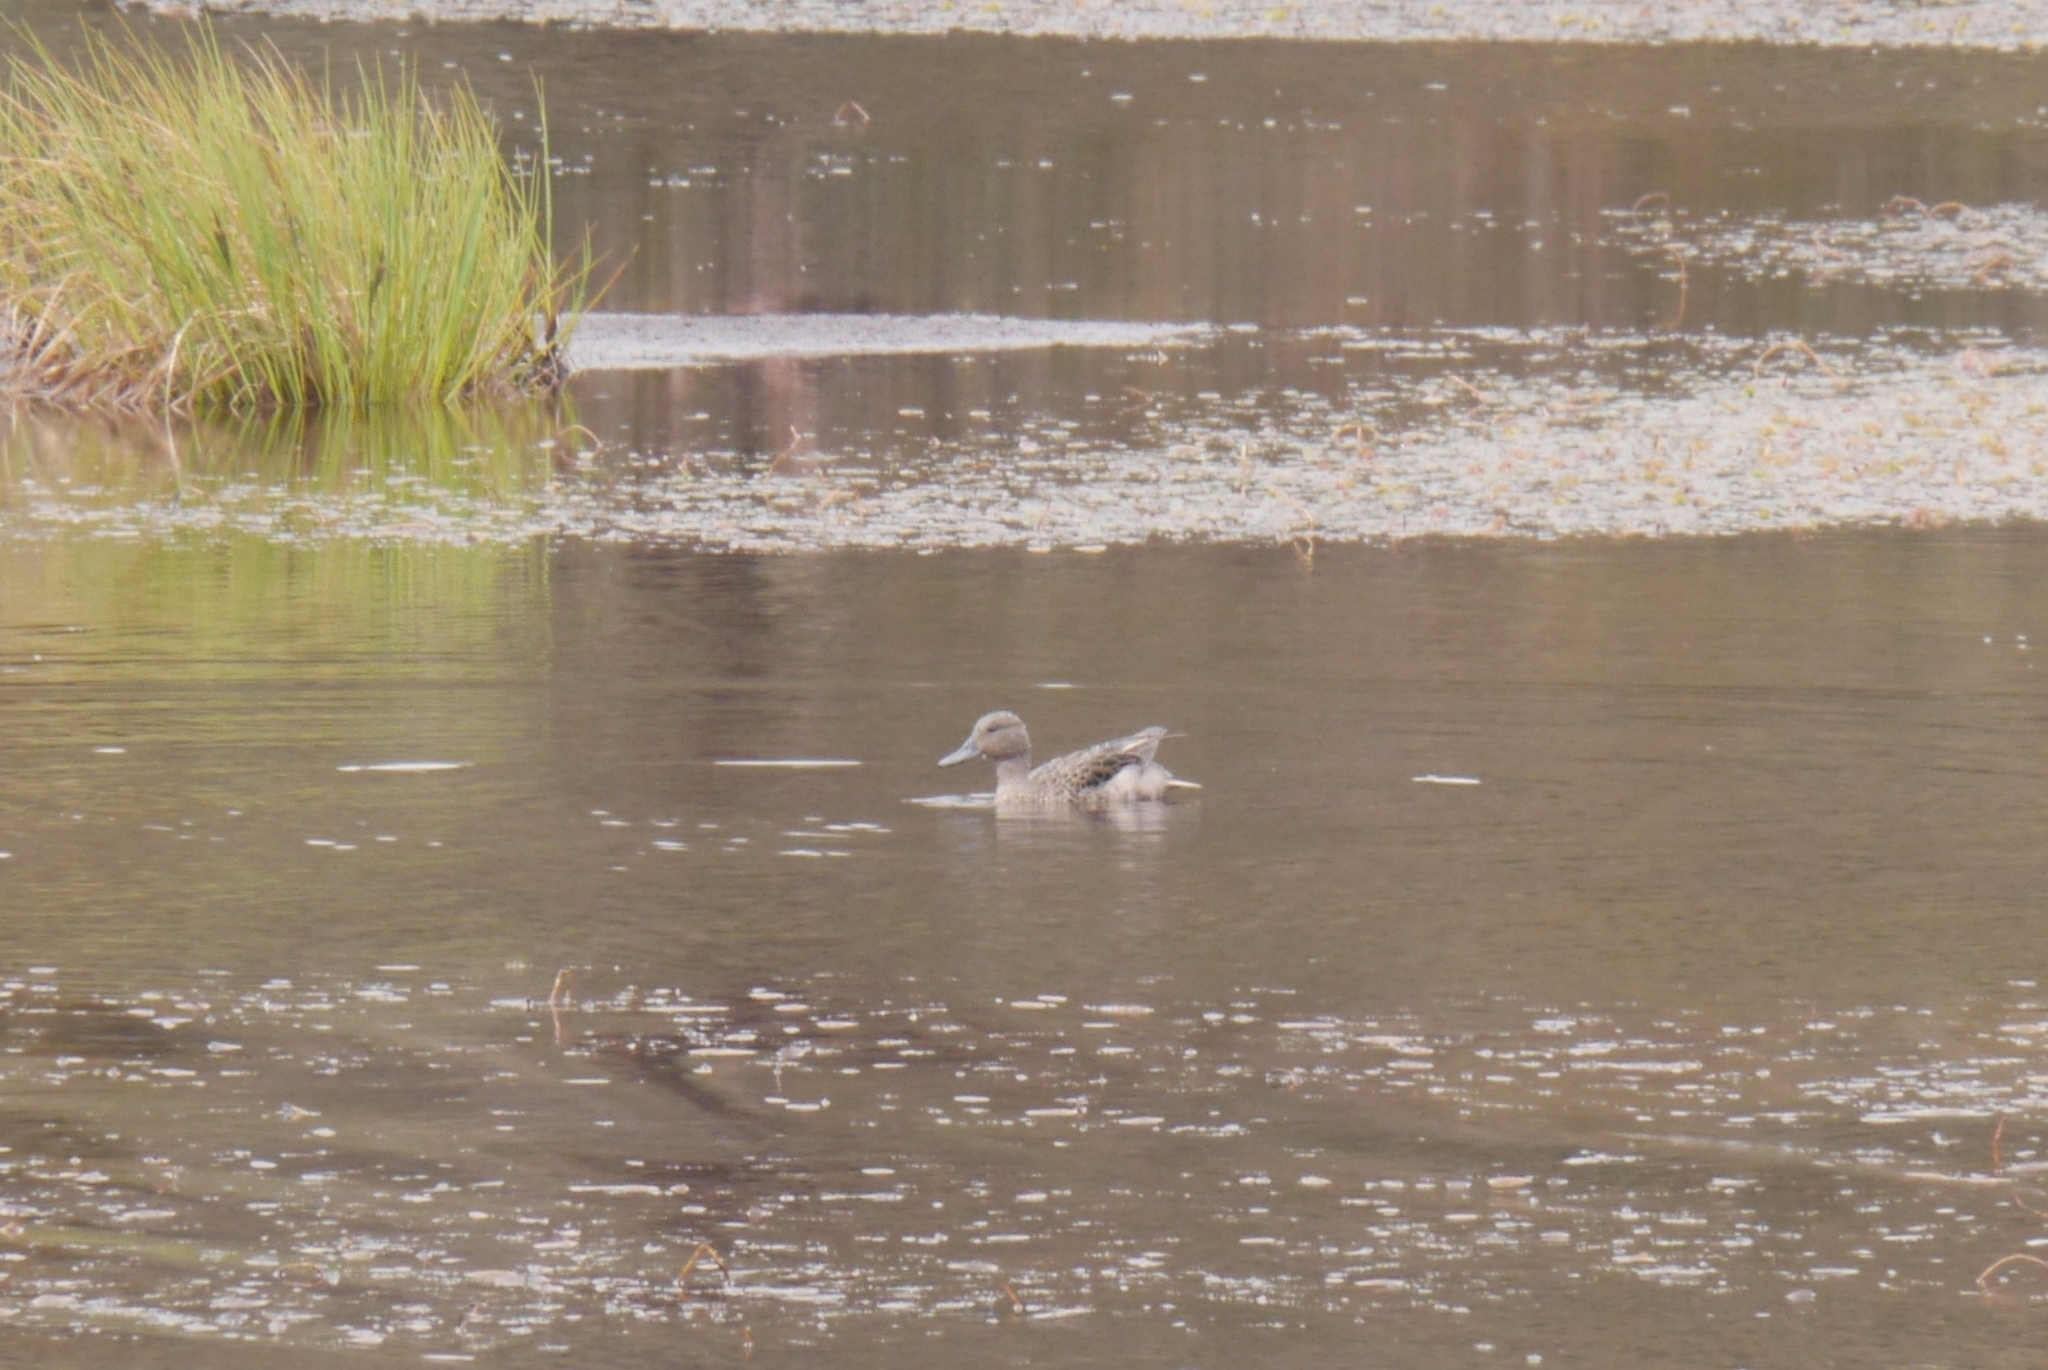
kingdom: Animalia
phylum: Chordata
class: Aves
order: Anseriformes
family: Anatidae
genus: Anas
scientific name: Anas andium
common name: Andean teal
